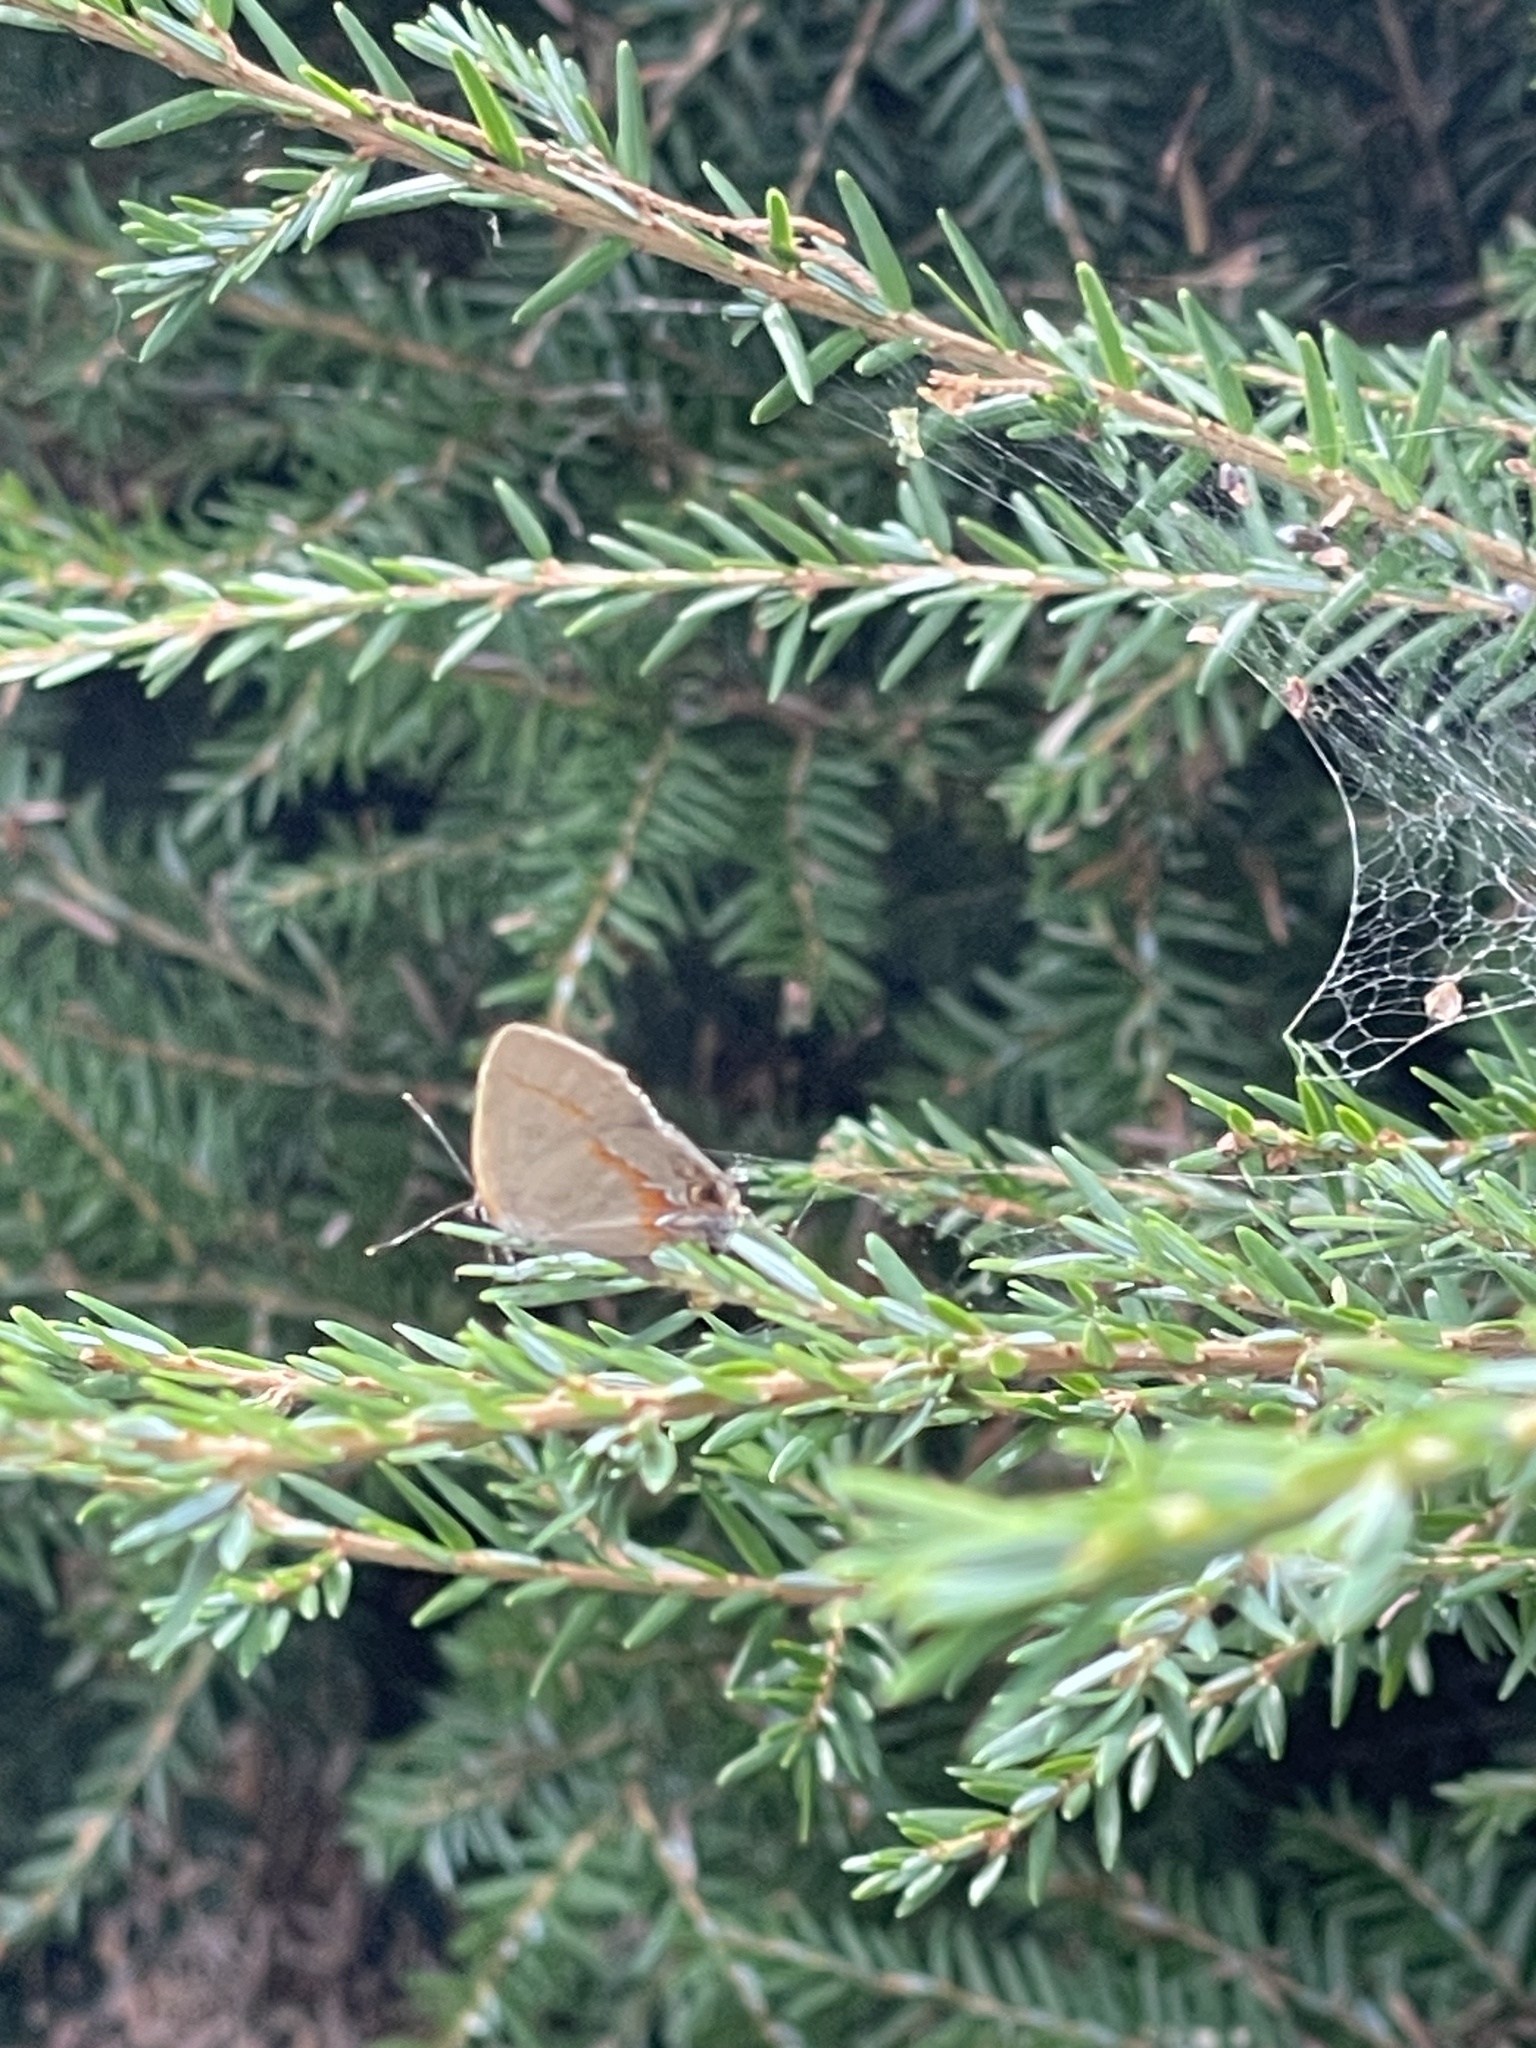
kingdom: Animalia
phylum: Arthropoda
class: Insecta
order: Lepidoptera
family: Lycaenidae
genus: Calycopis
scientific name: Calycopis cecrops
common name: Red-banded hairstreak
